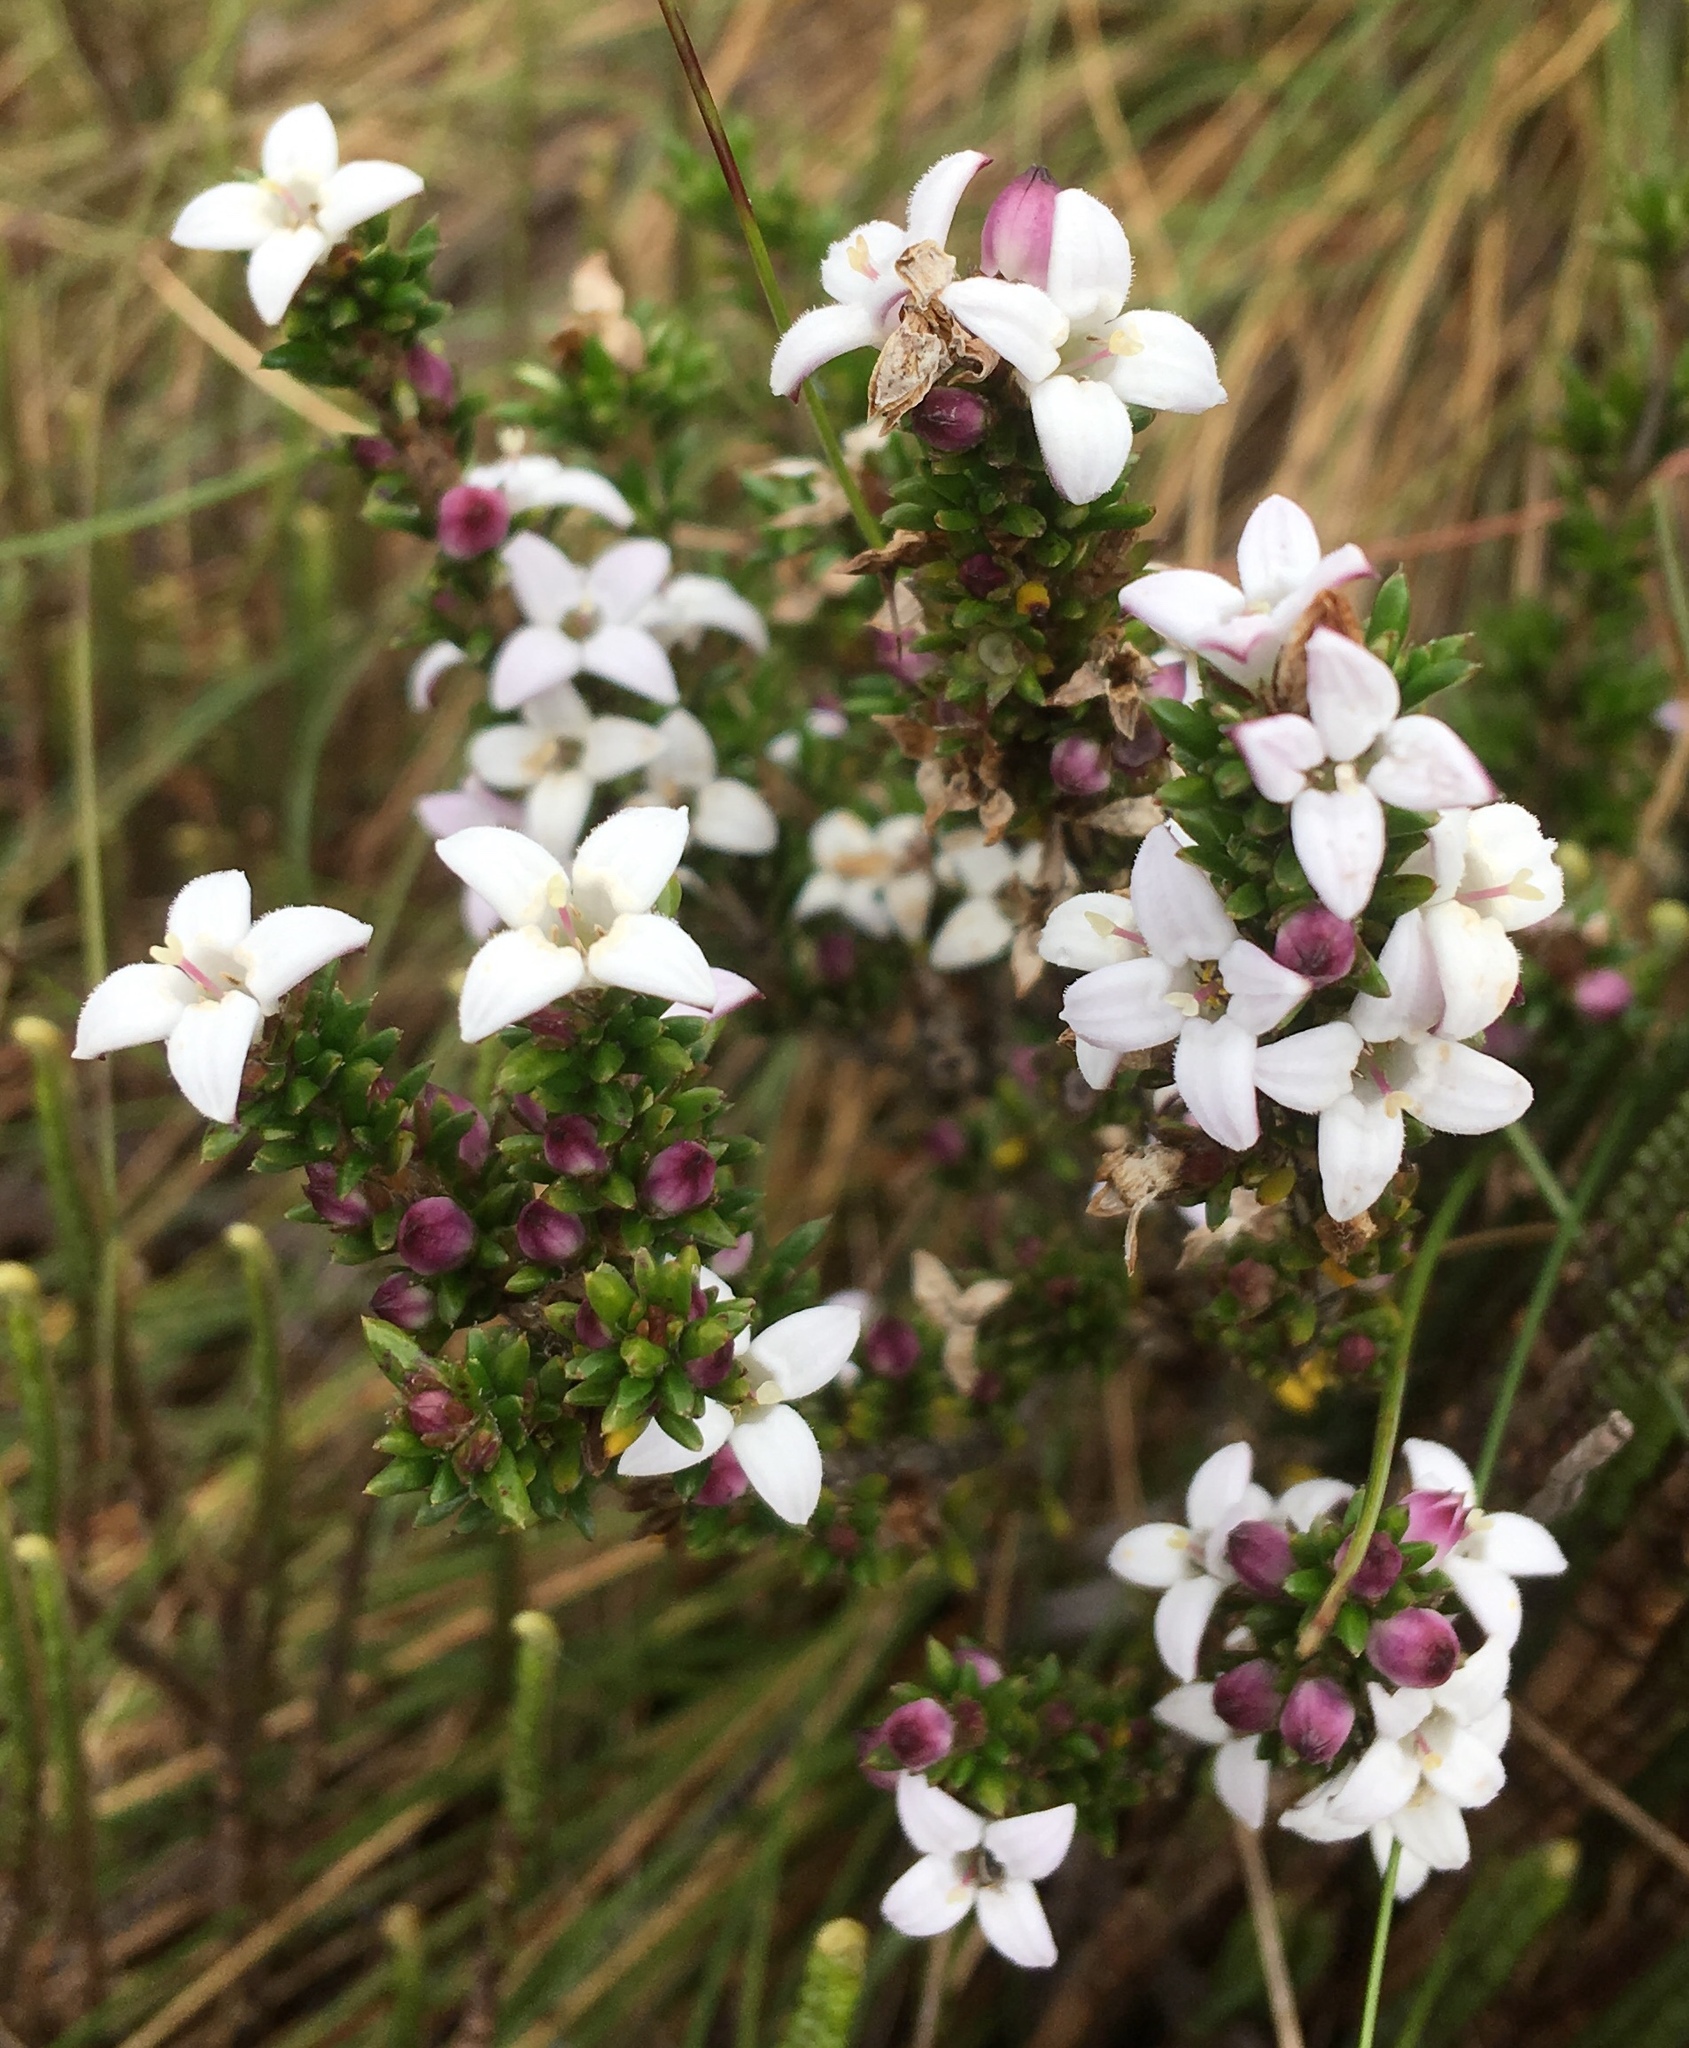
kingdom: Plantae
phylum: Tracheophyta
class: Magnoliopsida
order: Gentianales
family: Rubiaceae
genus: Arcytophyllum
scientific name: Arcytophyllum nitidum
